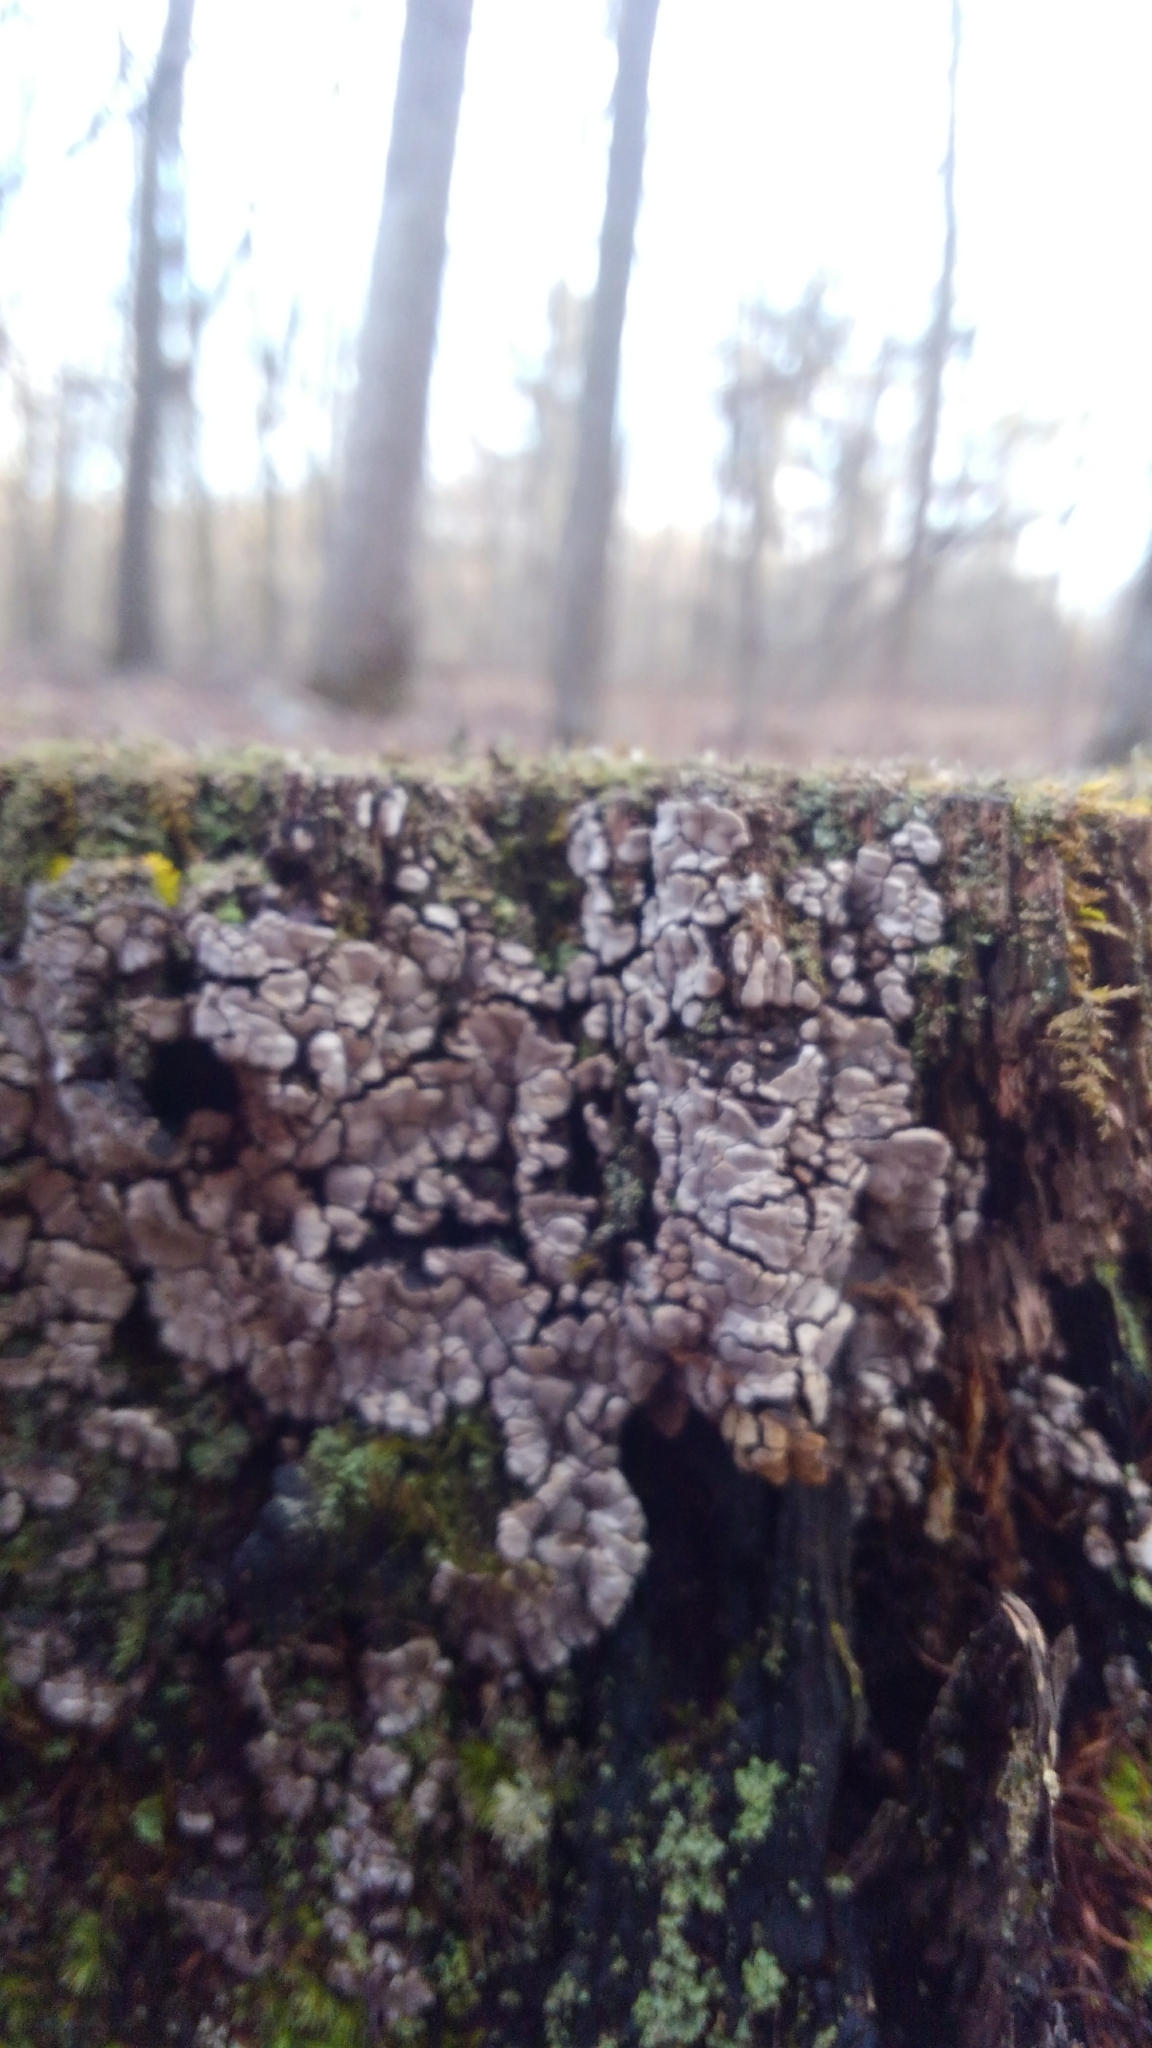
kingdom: Fungi
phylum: Basidiomycota
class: Agaricomycetes
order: Russulales
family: Stereaceae
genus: Xylobolus
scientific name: Xylobolus frustulatus
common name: Ceramic parchment
